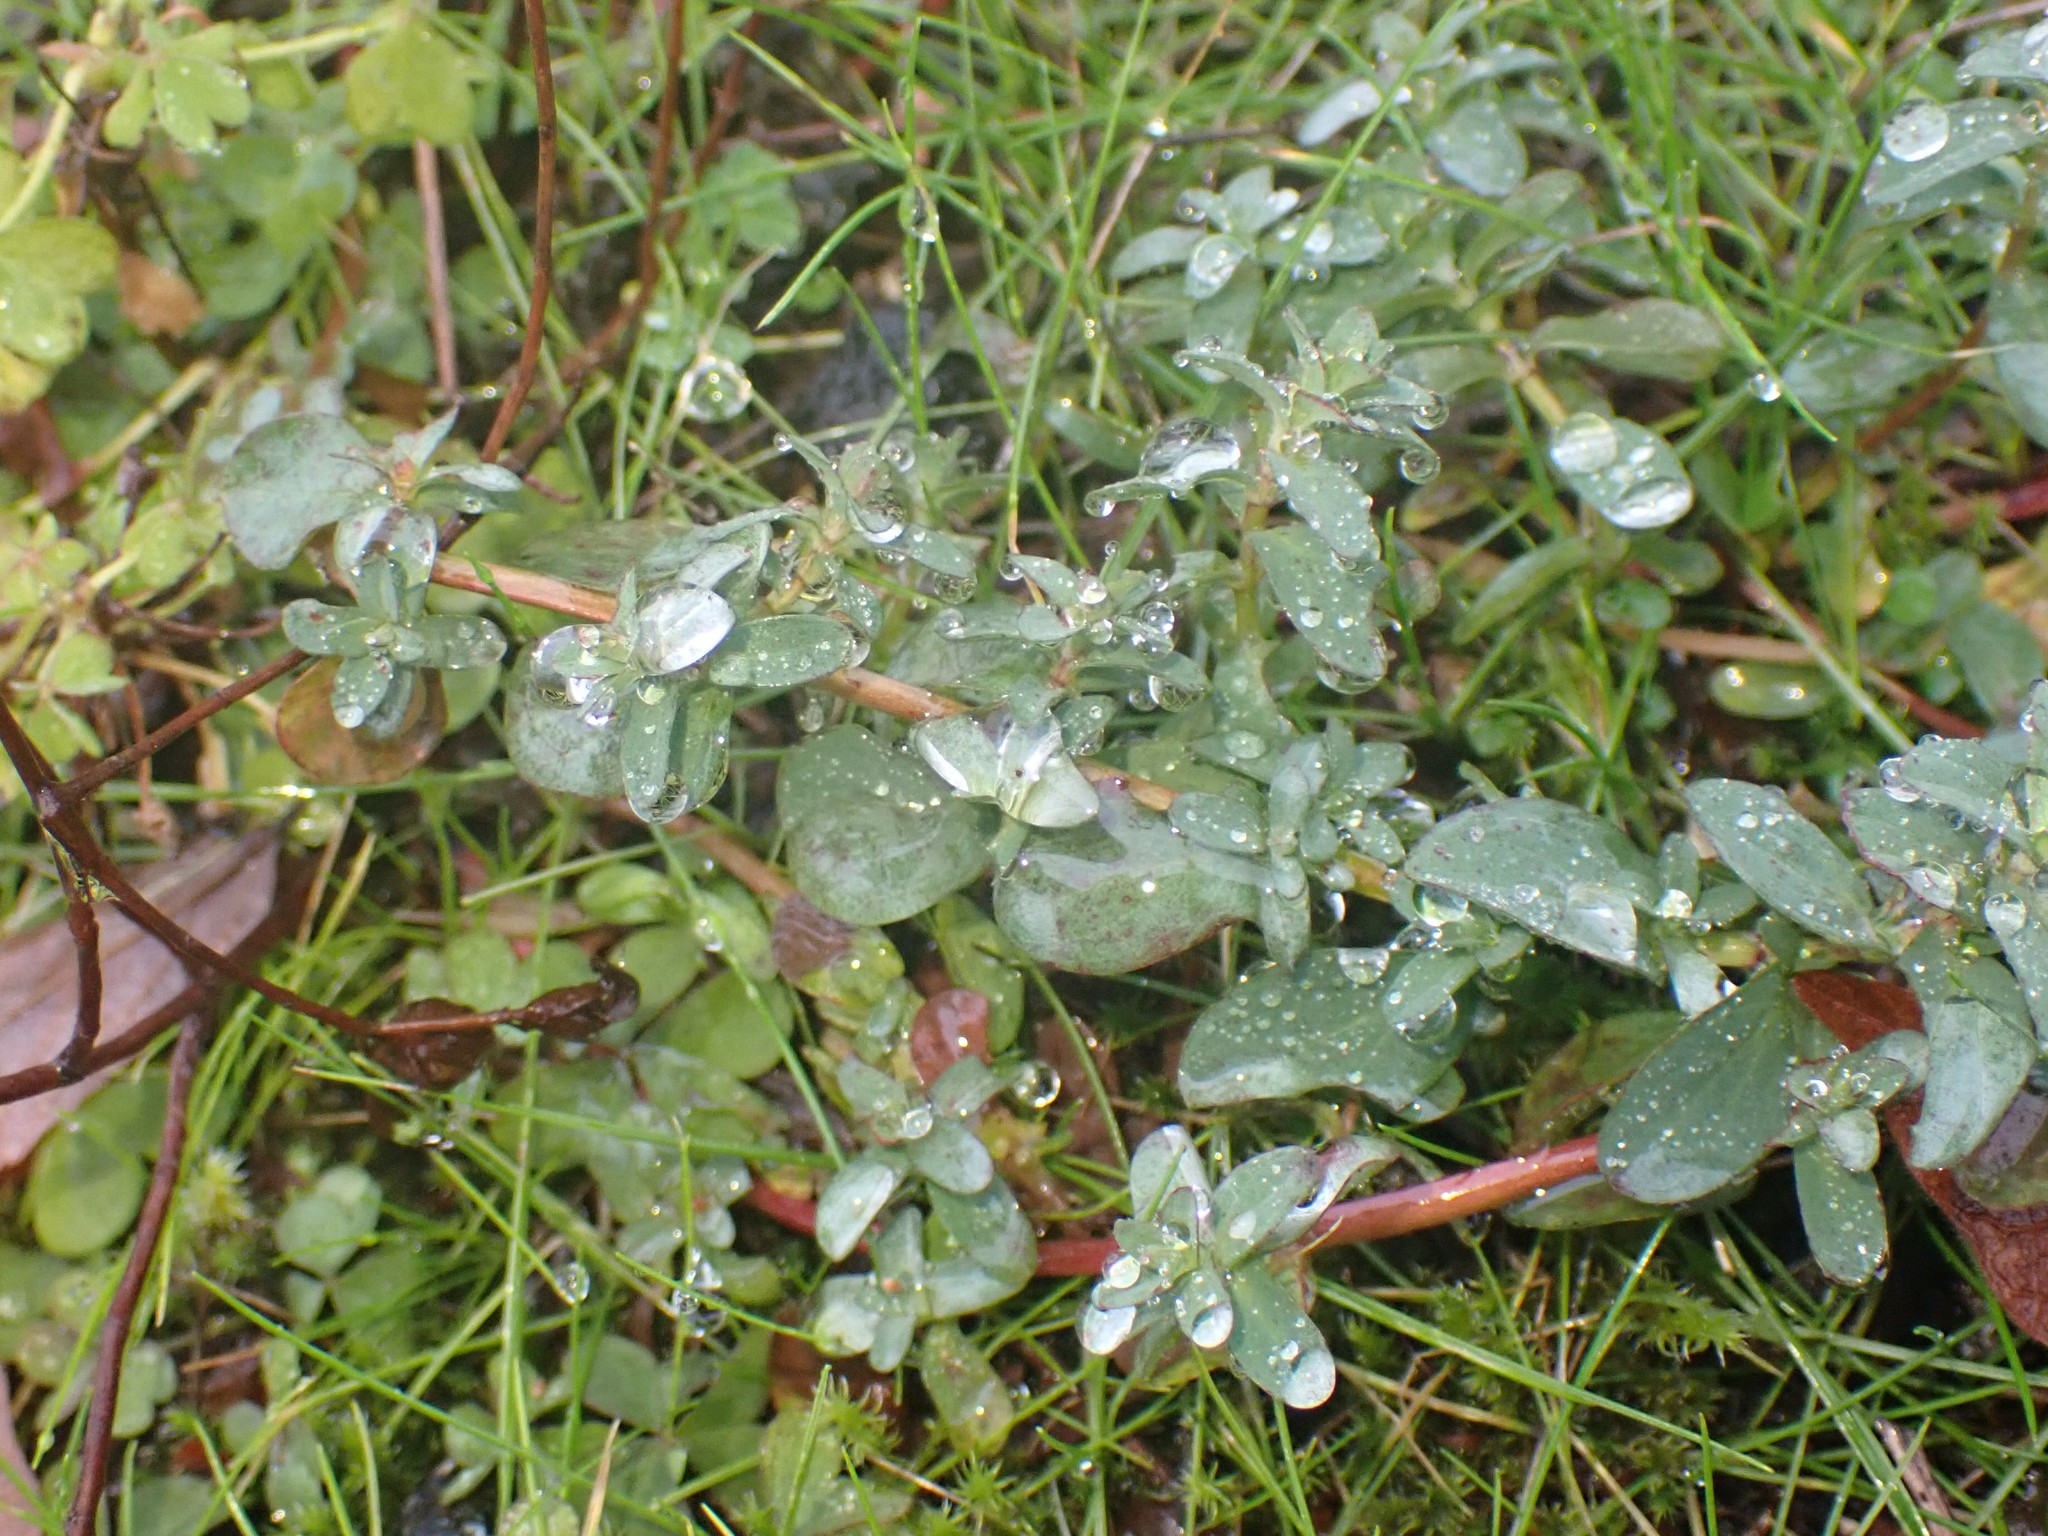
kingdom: Plantae
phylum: Tracheophyta
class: Magnoliopsida
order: Malpighiales
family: Hypericaceae
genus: Hypericum
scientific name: Hypericum perforatum
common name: Common st. johnswort
